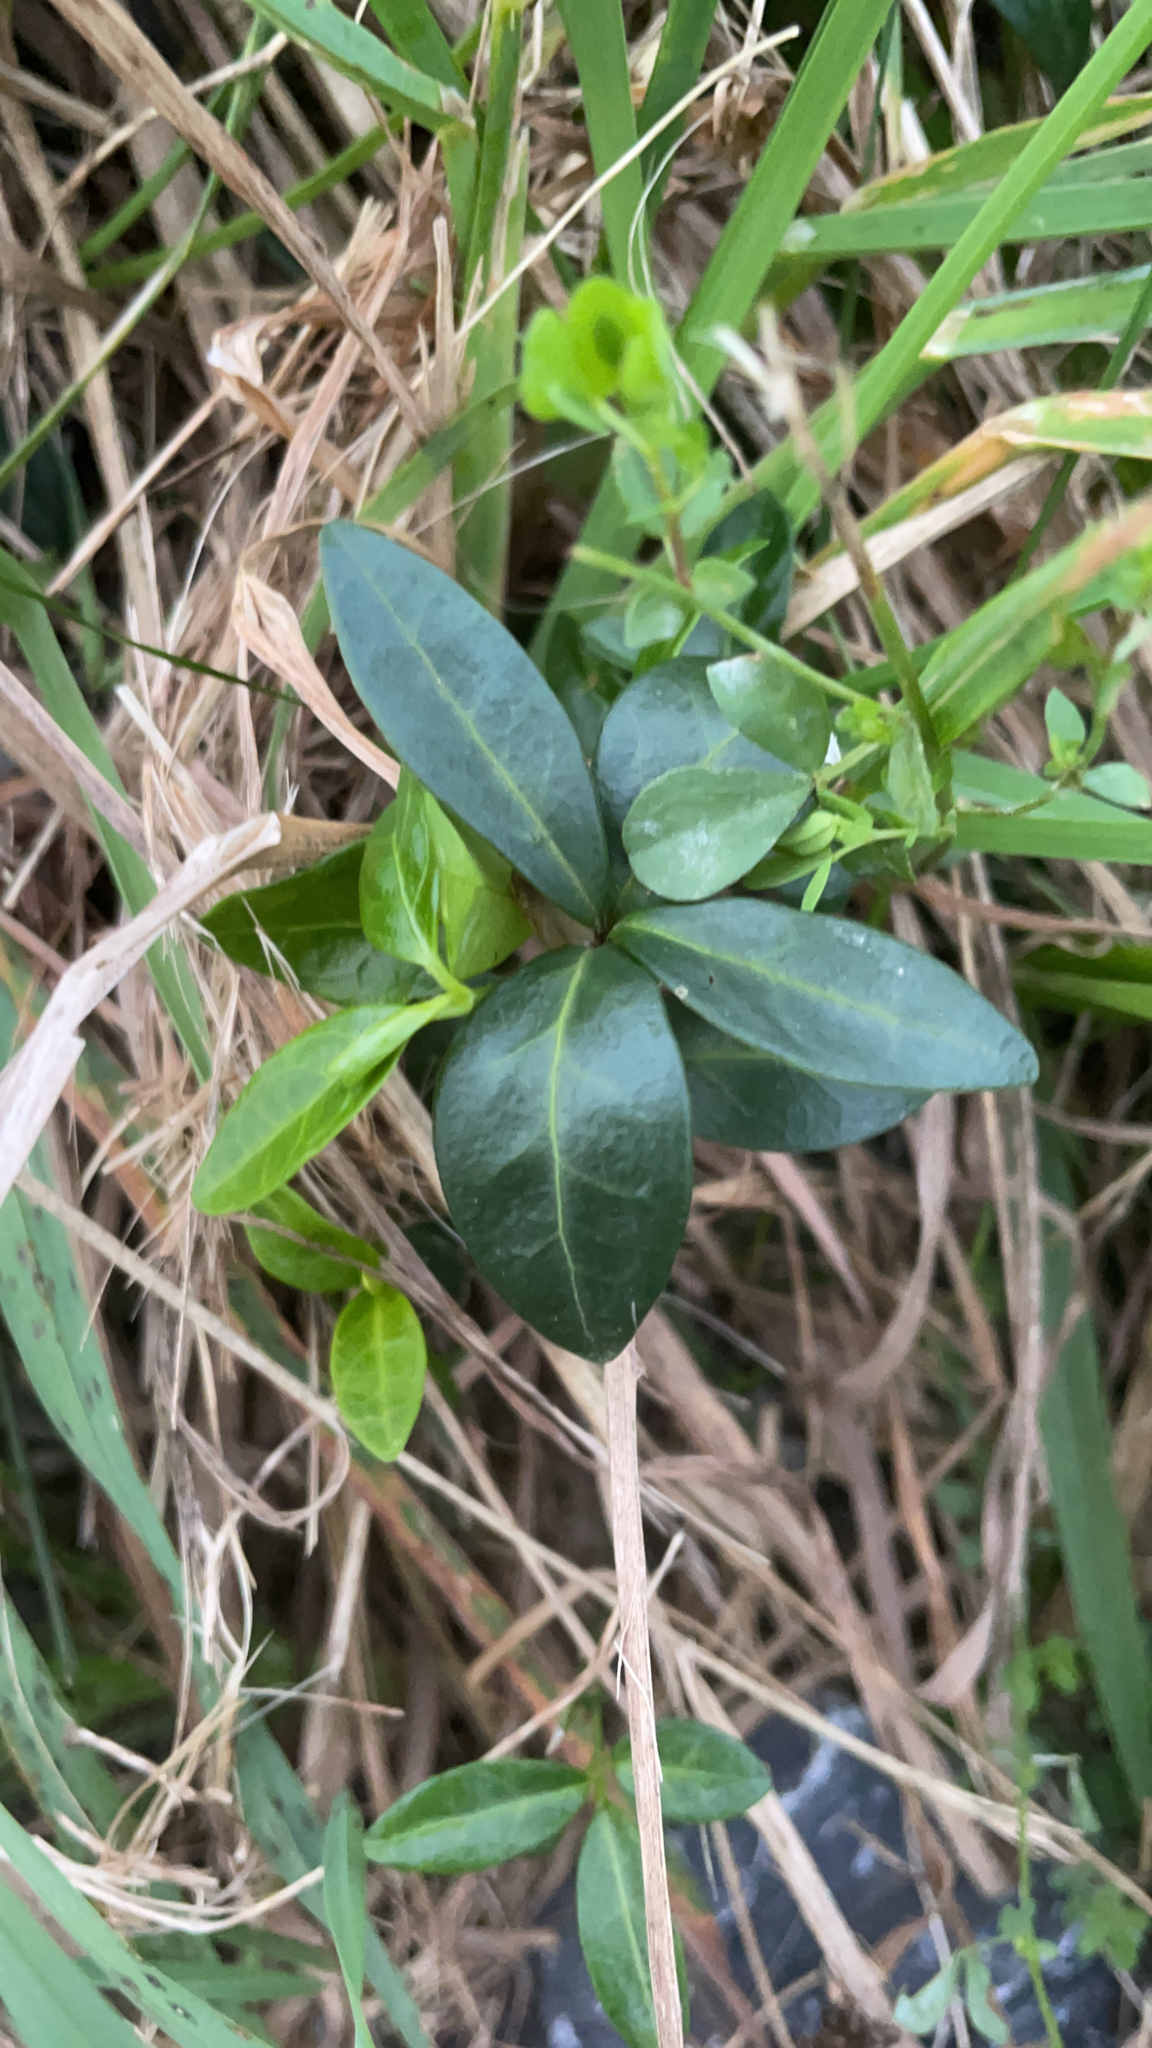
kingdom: Plantae
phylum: Tracheophyta
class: Magnoliopsida
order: Gentianales
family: Apocynaceae
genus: Vinca
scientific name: Vinca minor
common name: Lesser periwinkle
